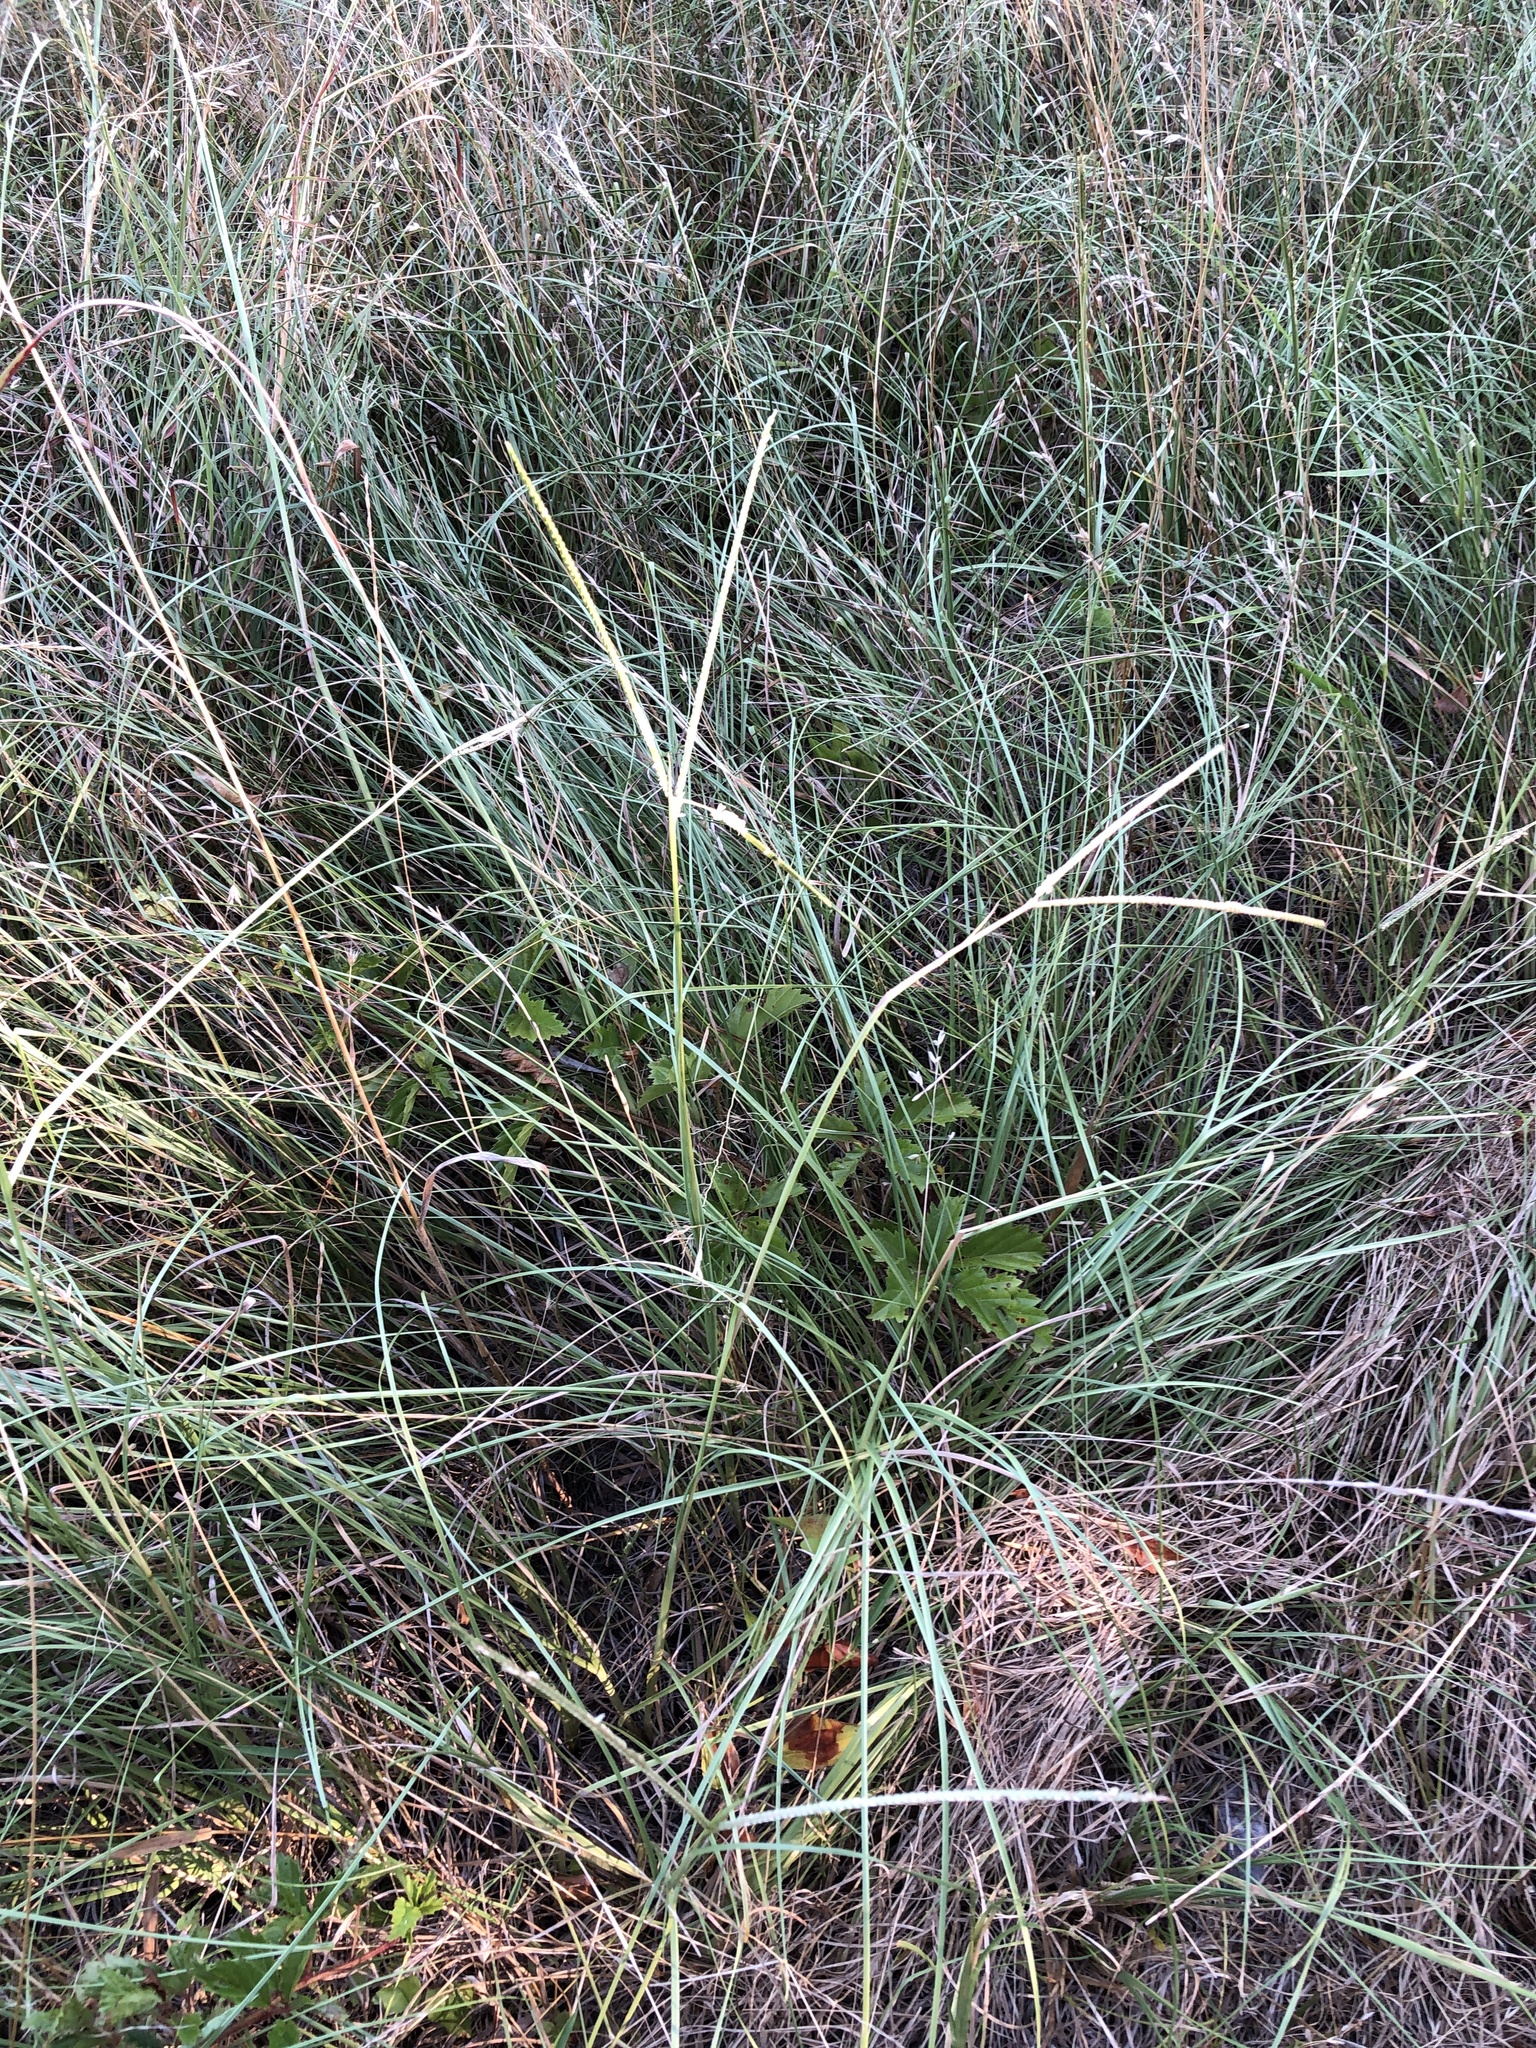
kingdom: Plantae
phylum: Tracheophyta
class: Liliopsida
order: Poales
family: Poaceae
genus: Paspalum
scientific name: Paspalum notatum
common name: Bahiagrass
